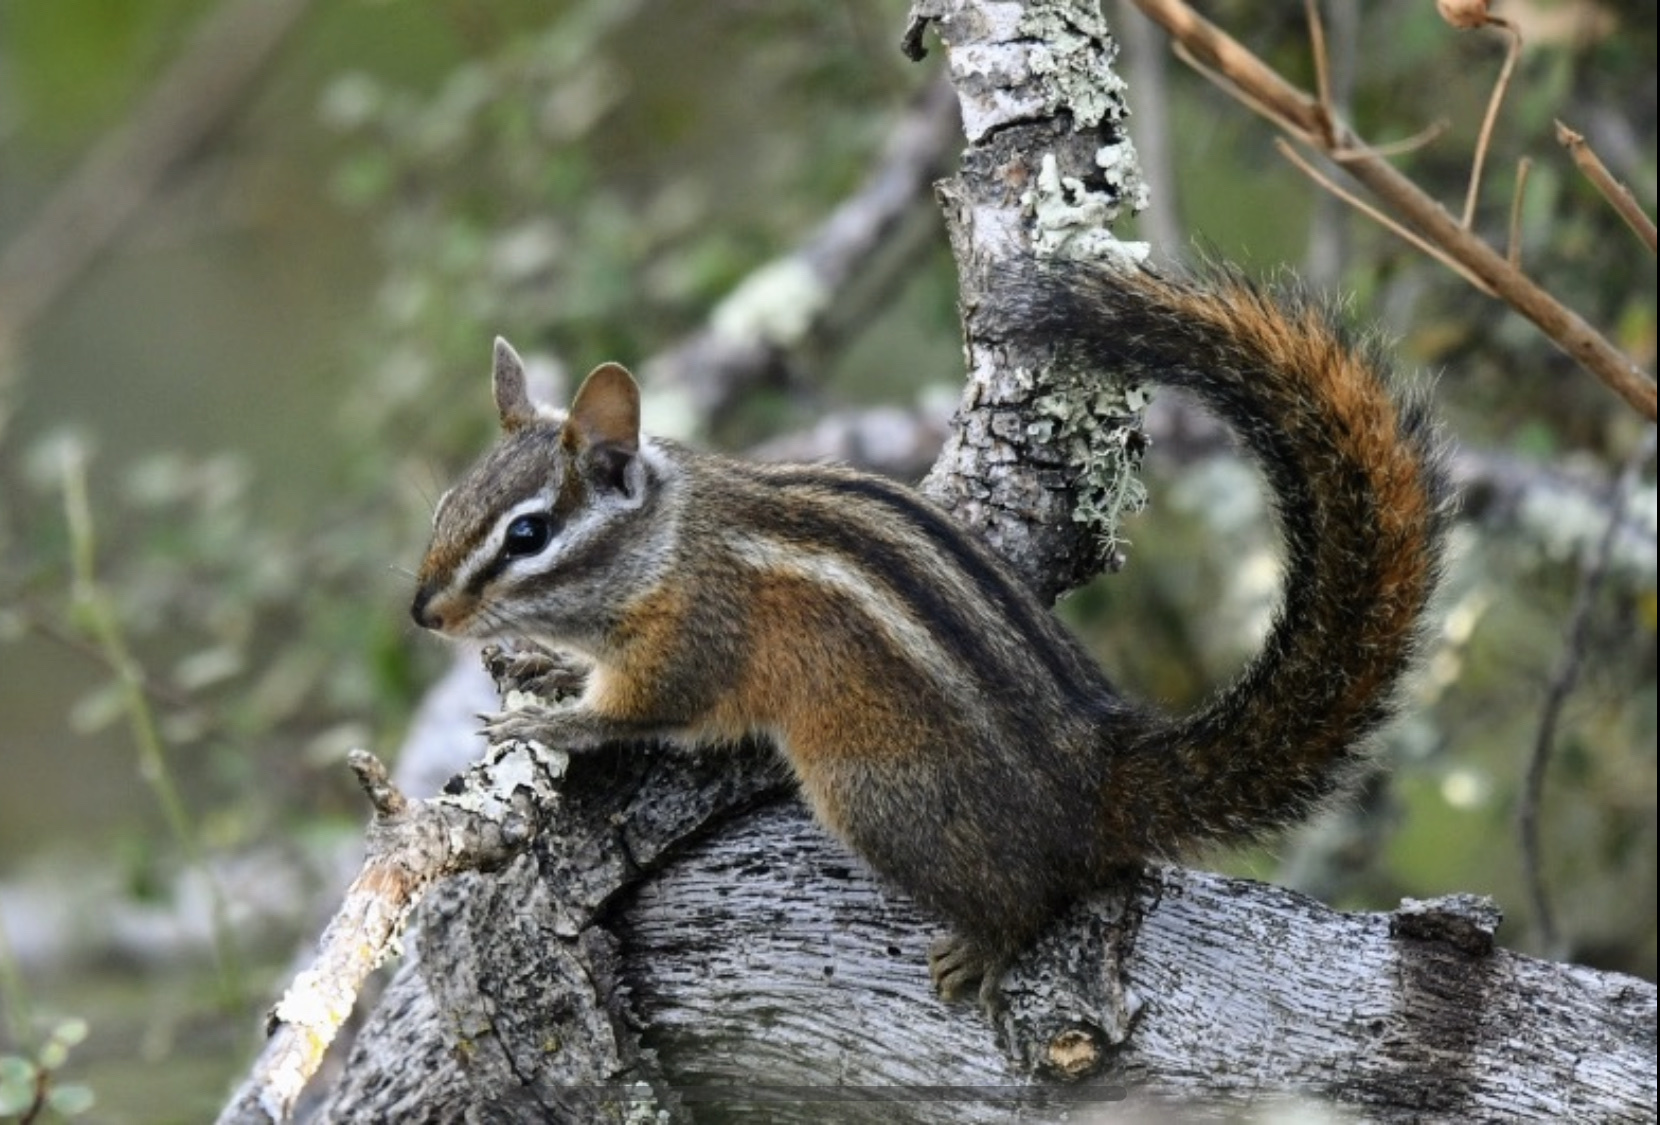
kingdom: Animalia
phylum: Chordata
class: Mammalia
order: Rodentia
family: Sciuridae
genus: Tamias
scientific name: Tamias merriami
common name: Merriam's chipmunk
